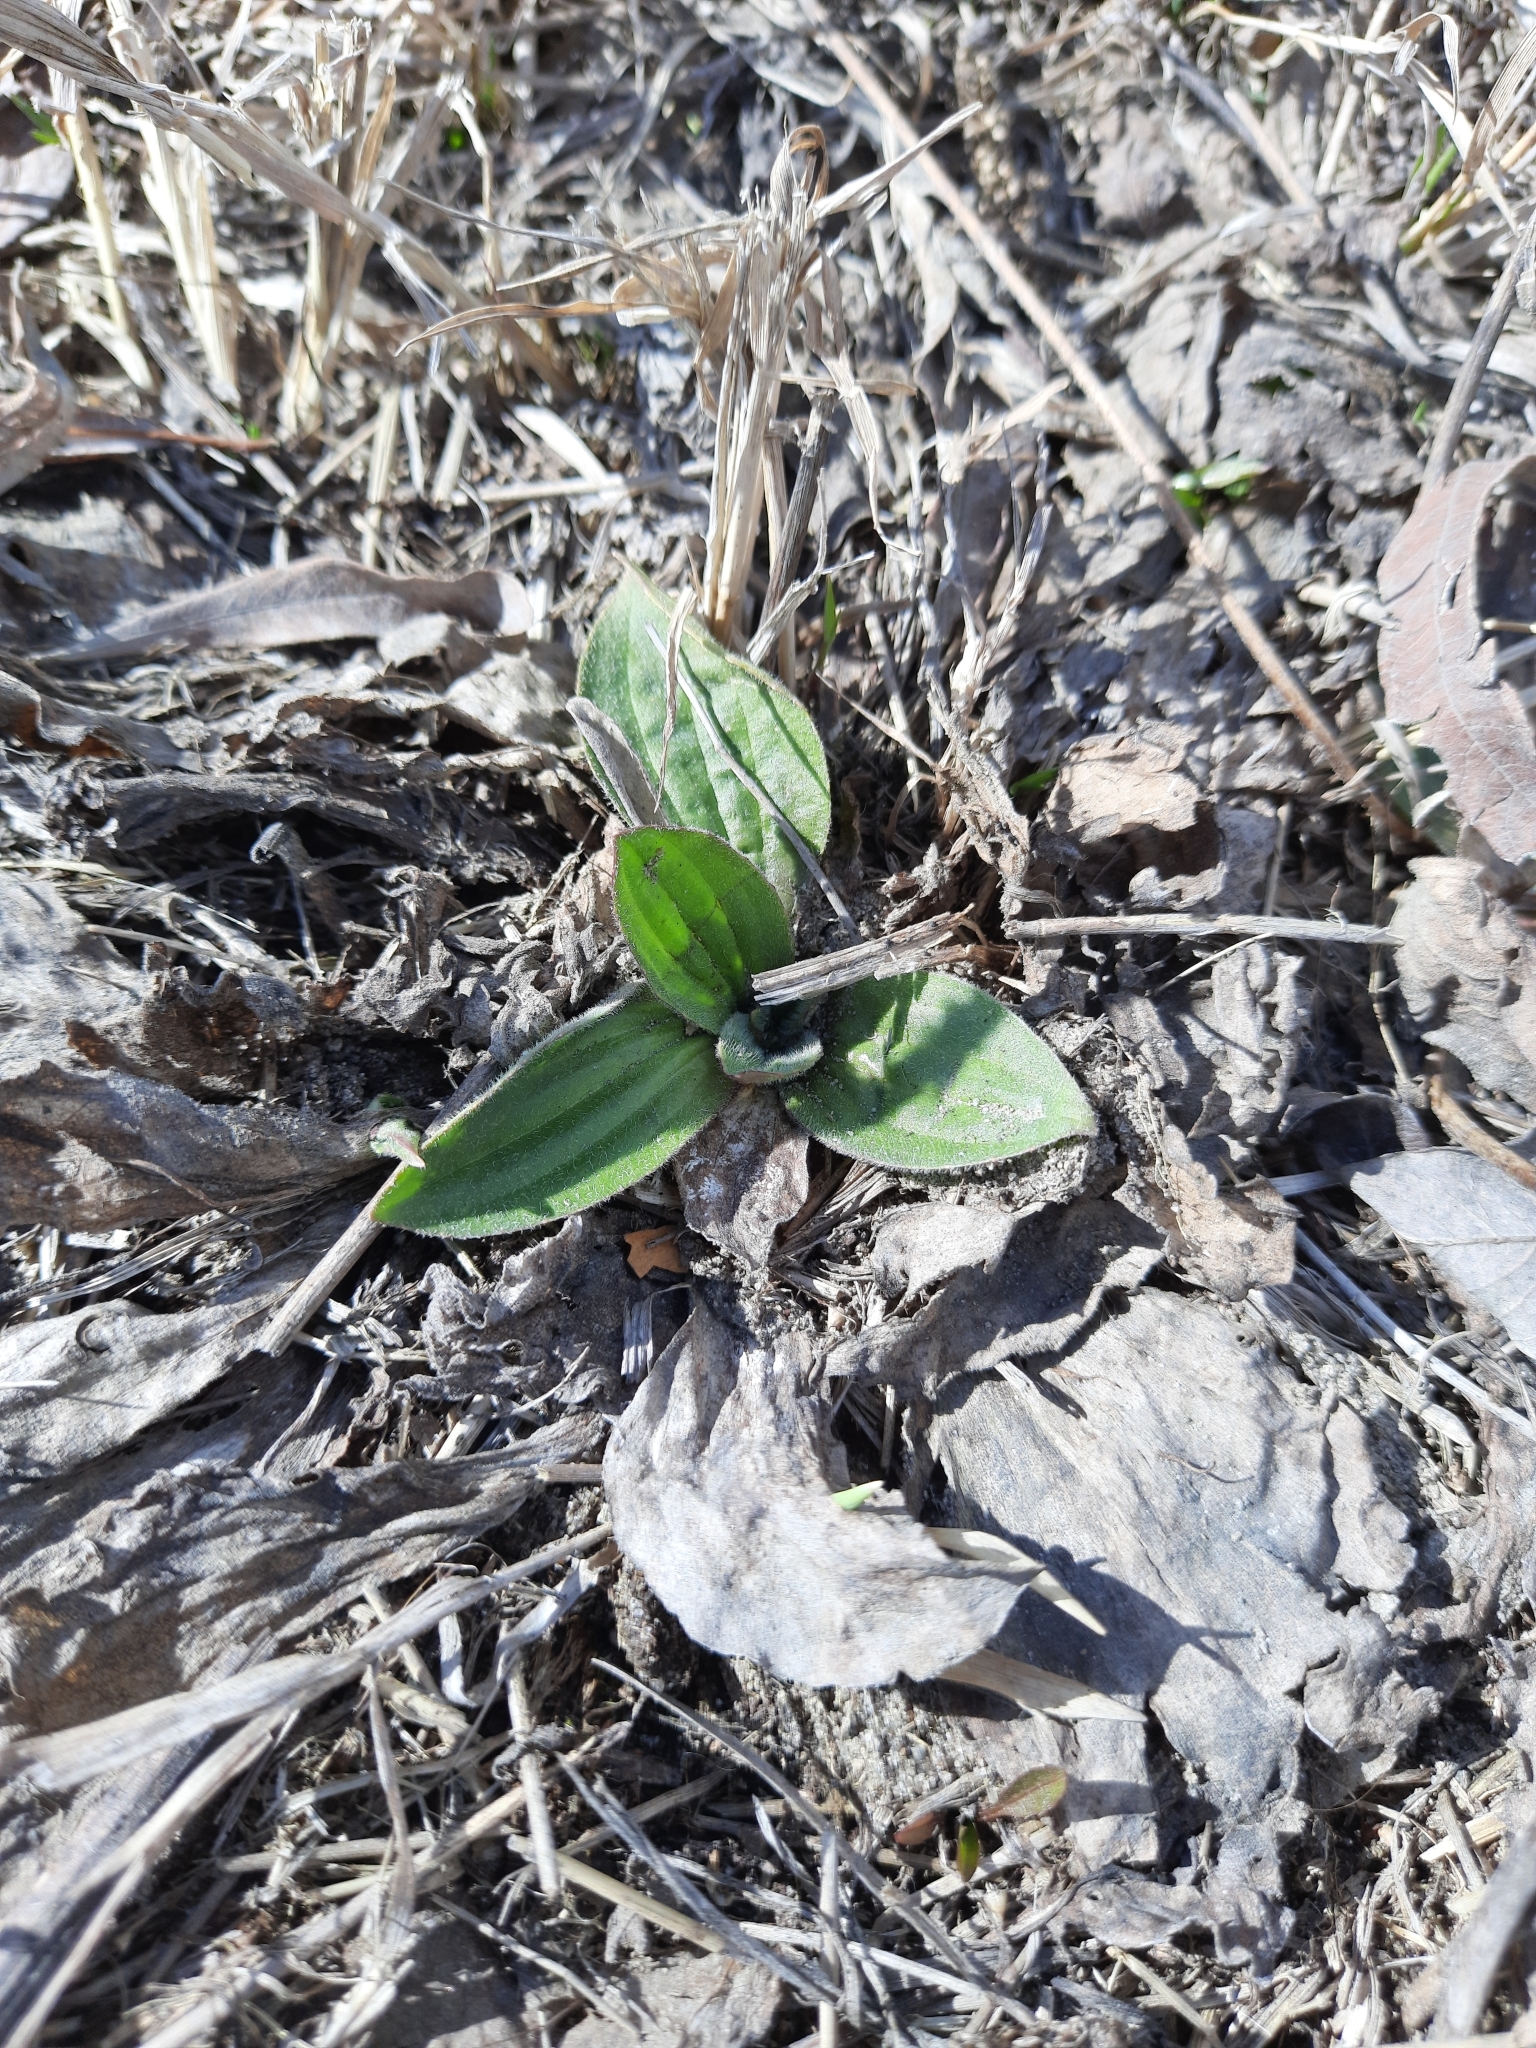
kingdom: Plantae
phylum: Tracheophyta
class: Magnoliopsida
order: Lamiales
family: Plantaginaceae
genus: Plantago
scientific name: Plantago media
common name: Hoary plantain
